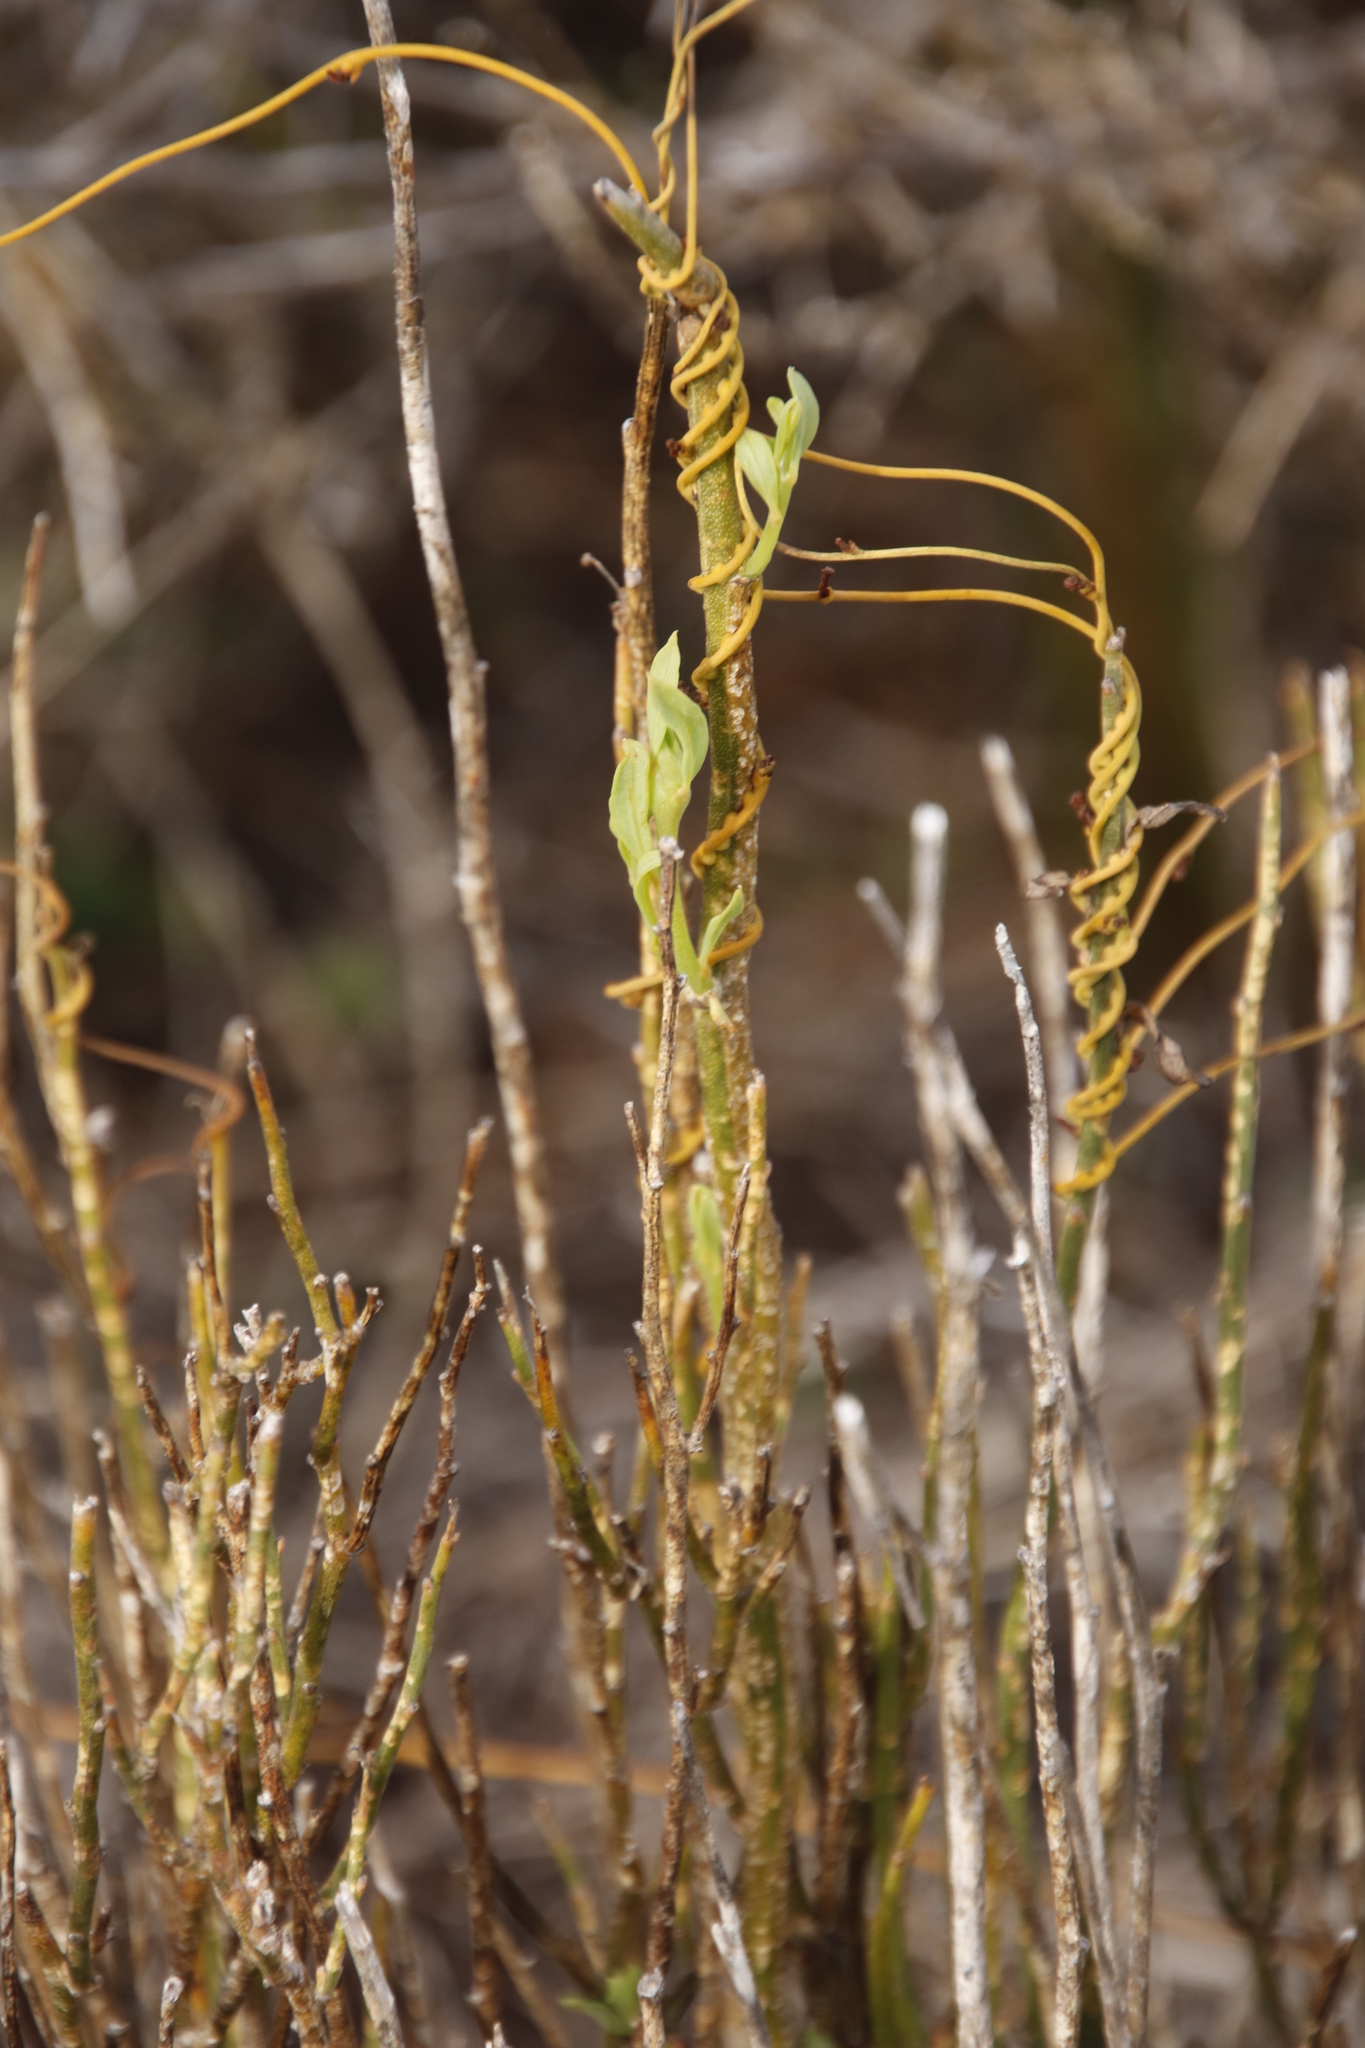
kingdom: Plantae
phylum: Tracheophyta
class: Magnoliopsida
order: Laurales
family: Lauraceae
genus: Cassytha
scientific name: Cassytha ciliolata
